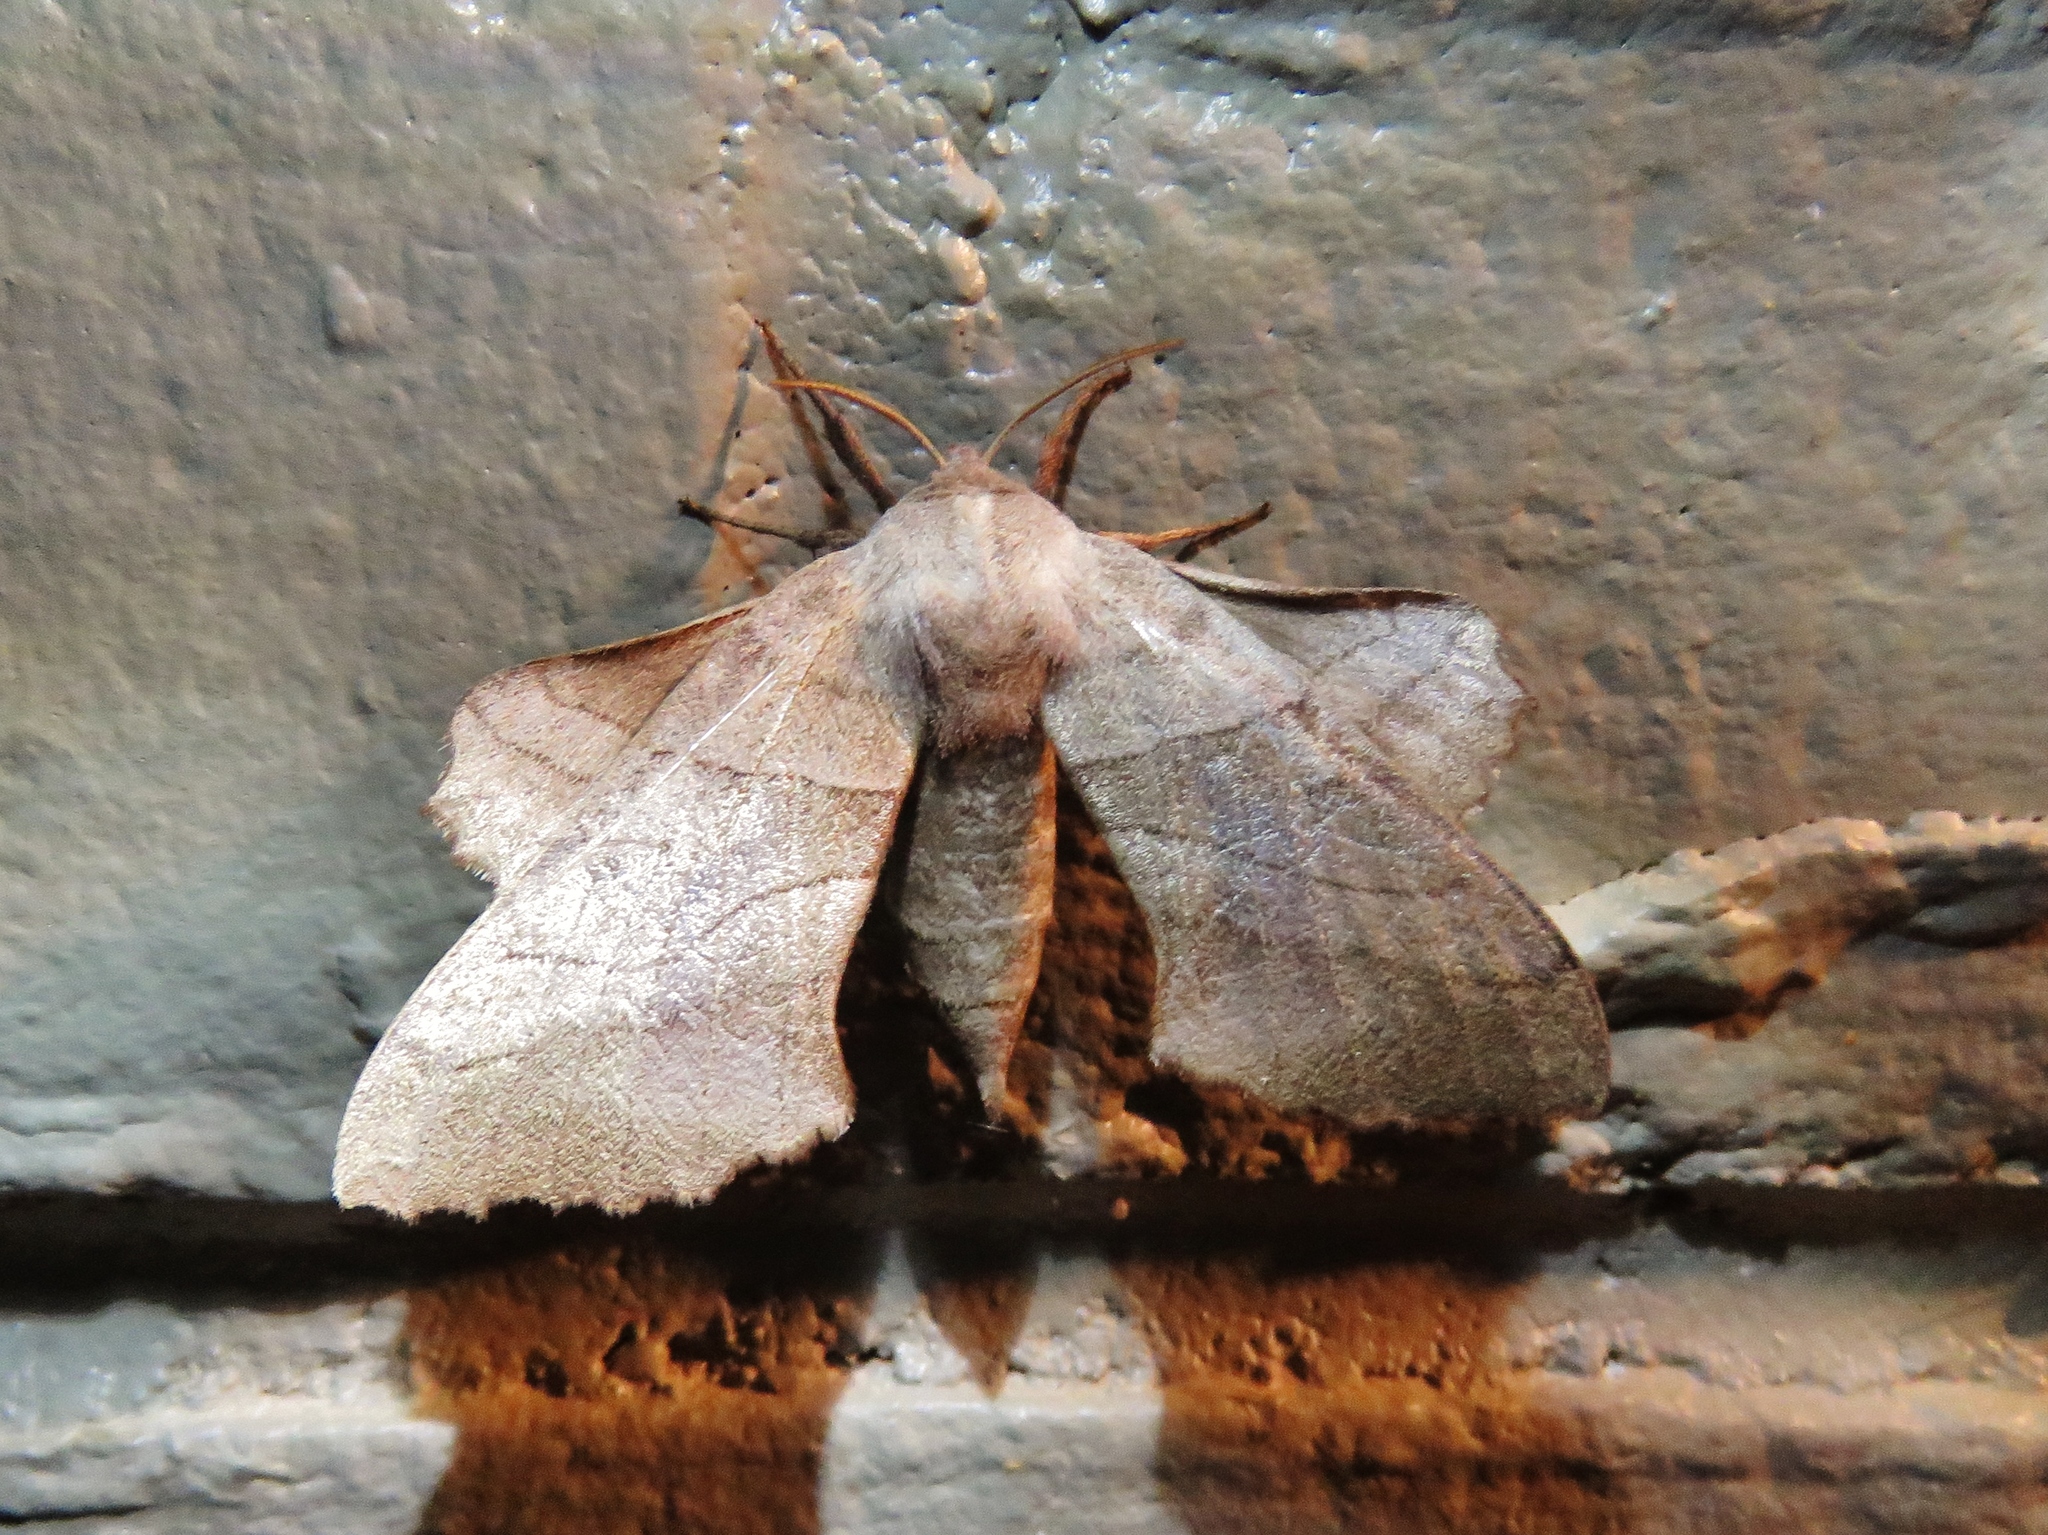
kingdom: Animalia
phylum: Arthropoda
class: Insecta
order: Lepidoptera
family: Sphingidae
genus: Amorpha
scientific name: Amorpha juglandis
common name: Walnut sphinx
